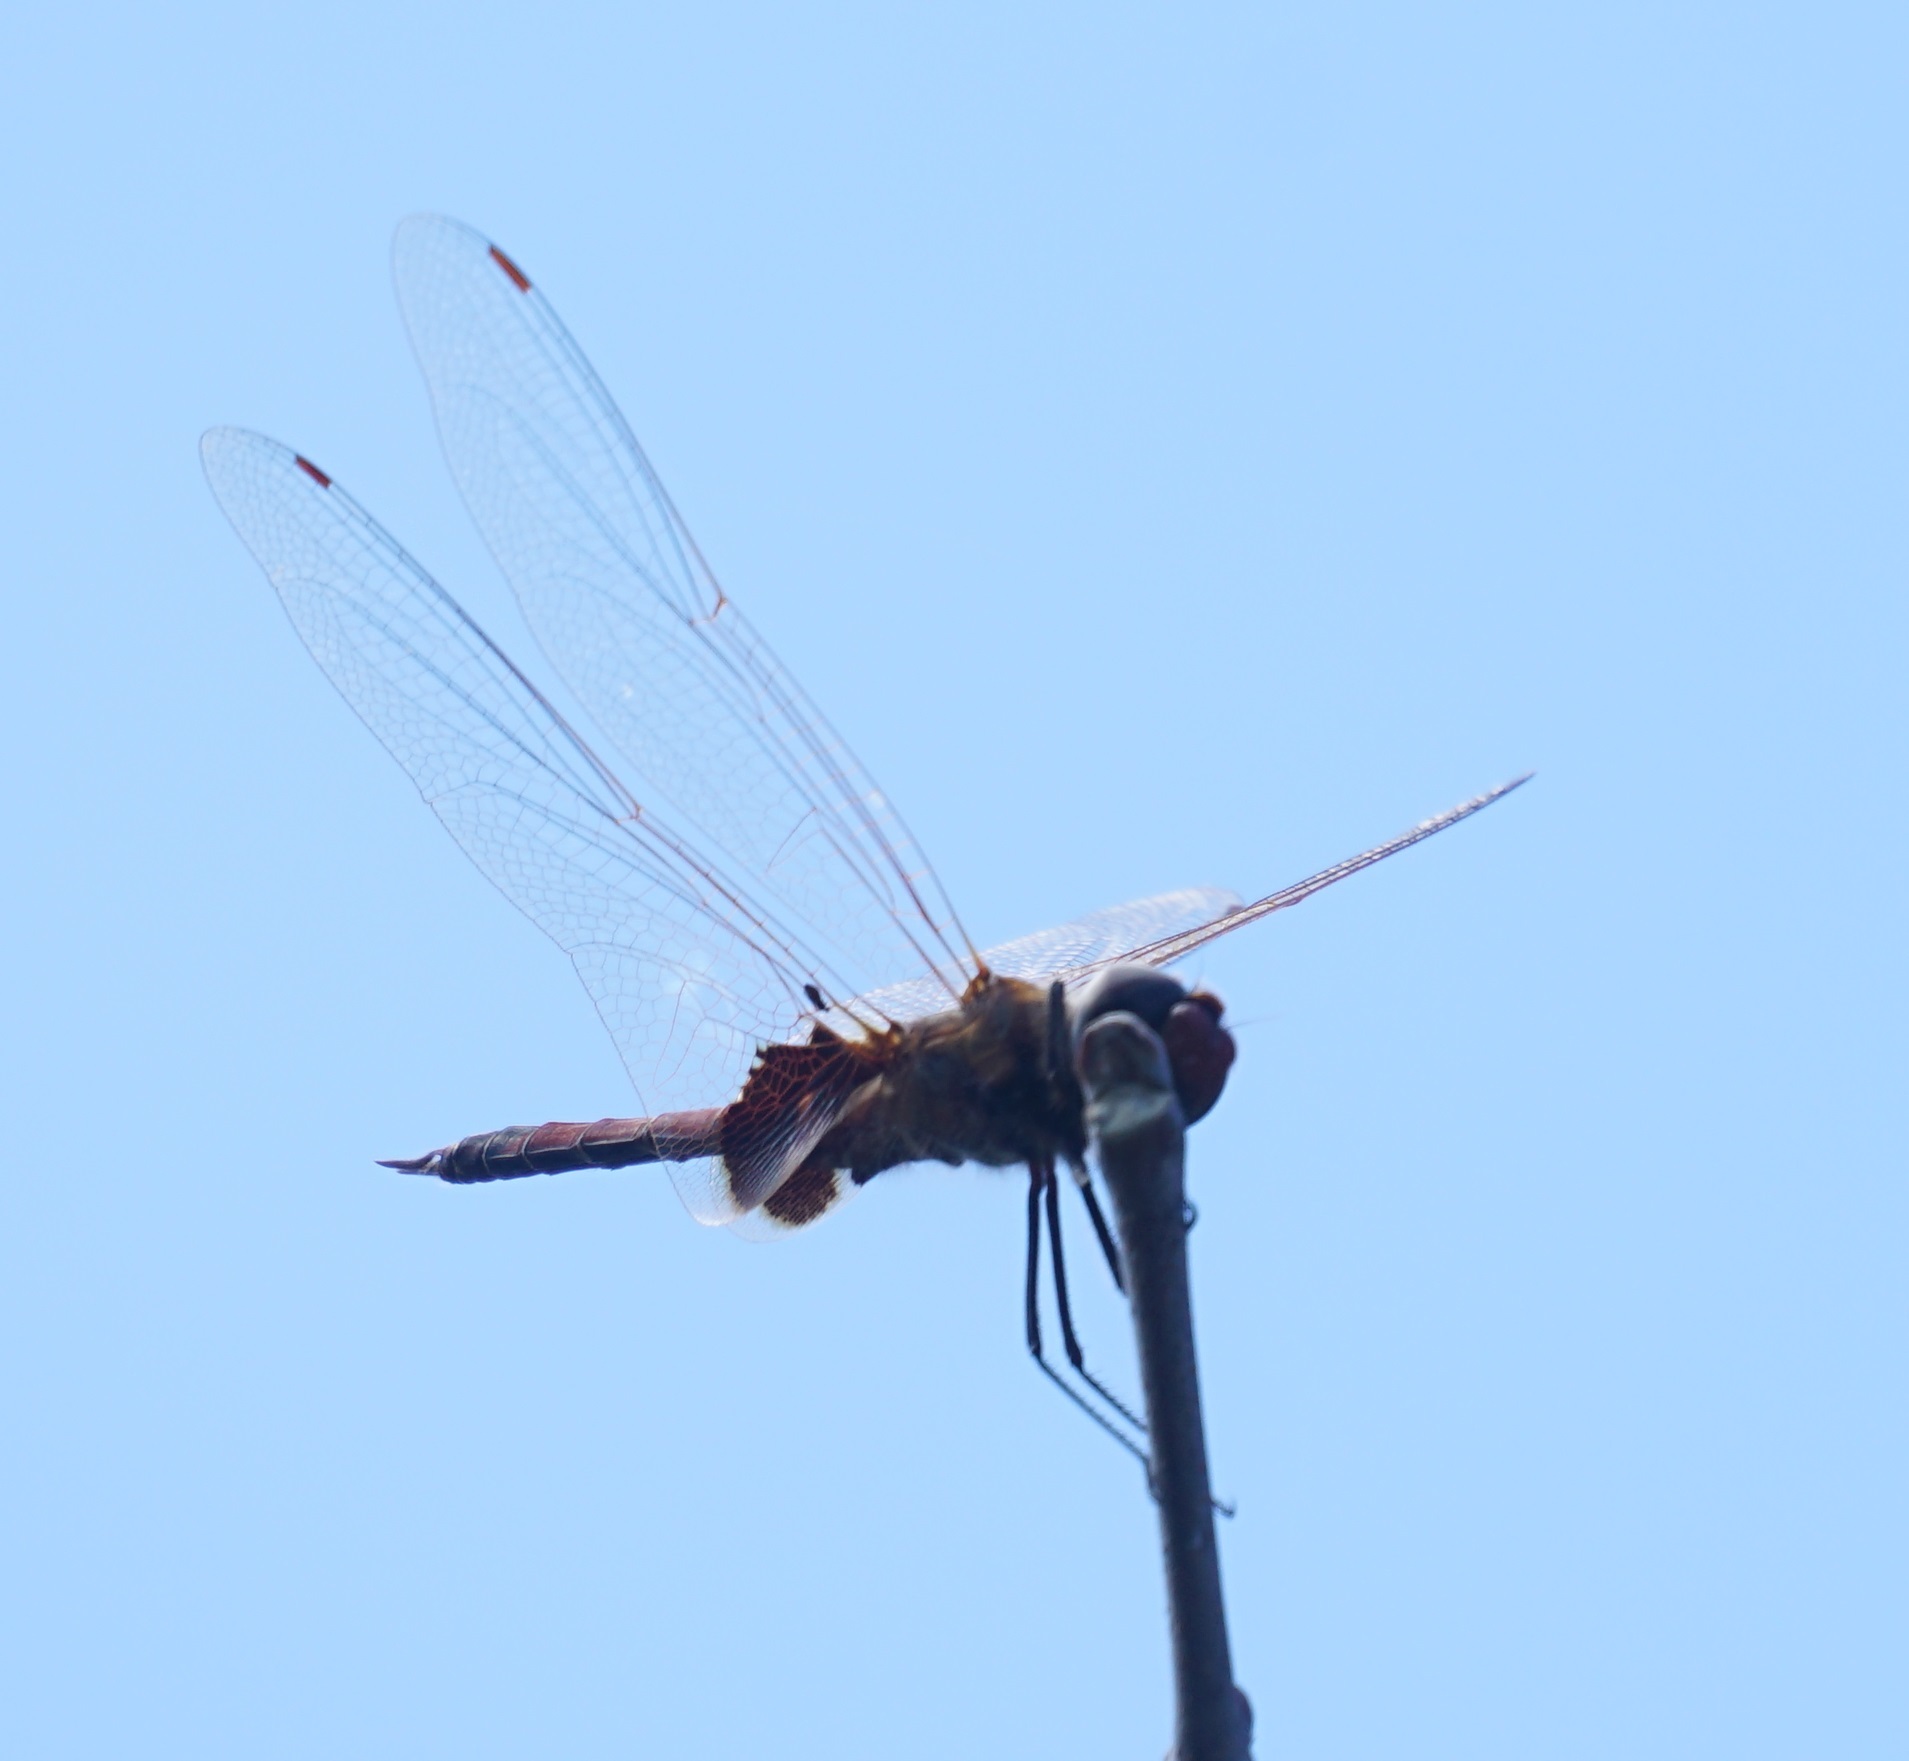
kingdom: Animalia
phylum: Arthropoda
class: Insecta
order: Odonata
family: Libellulidae
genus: Tramea
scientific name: Tramea loewii
